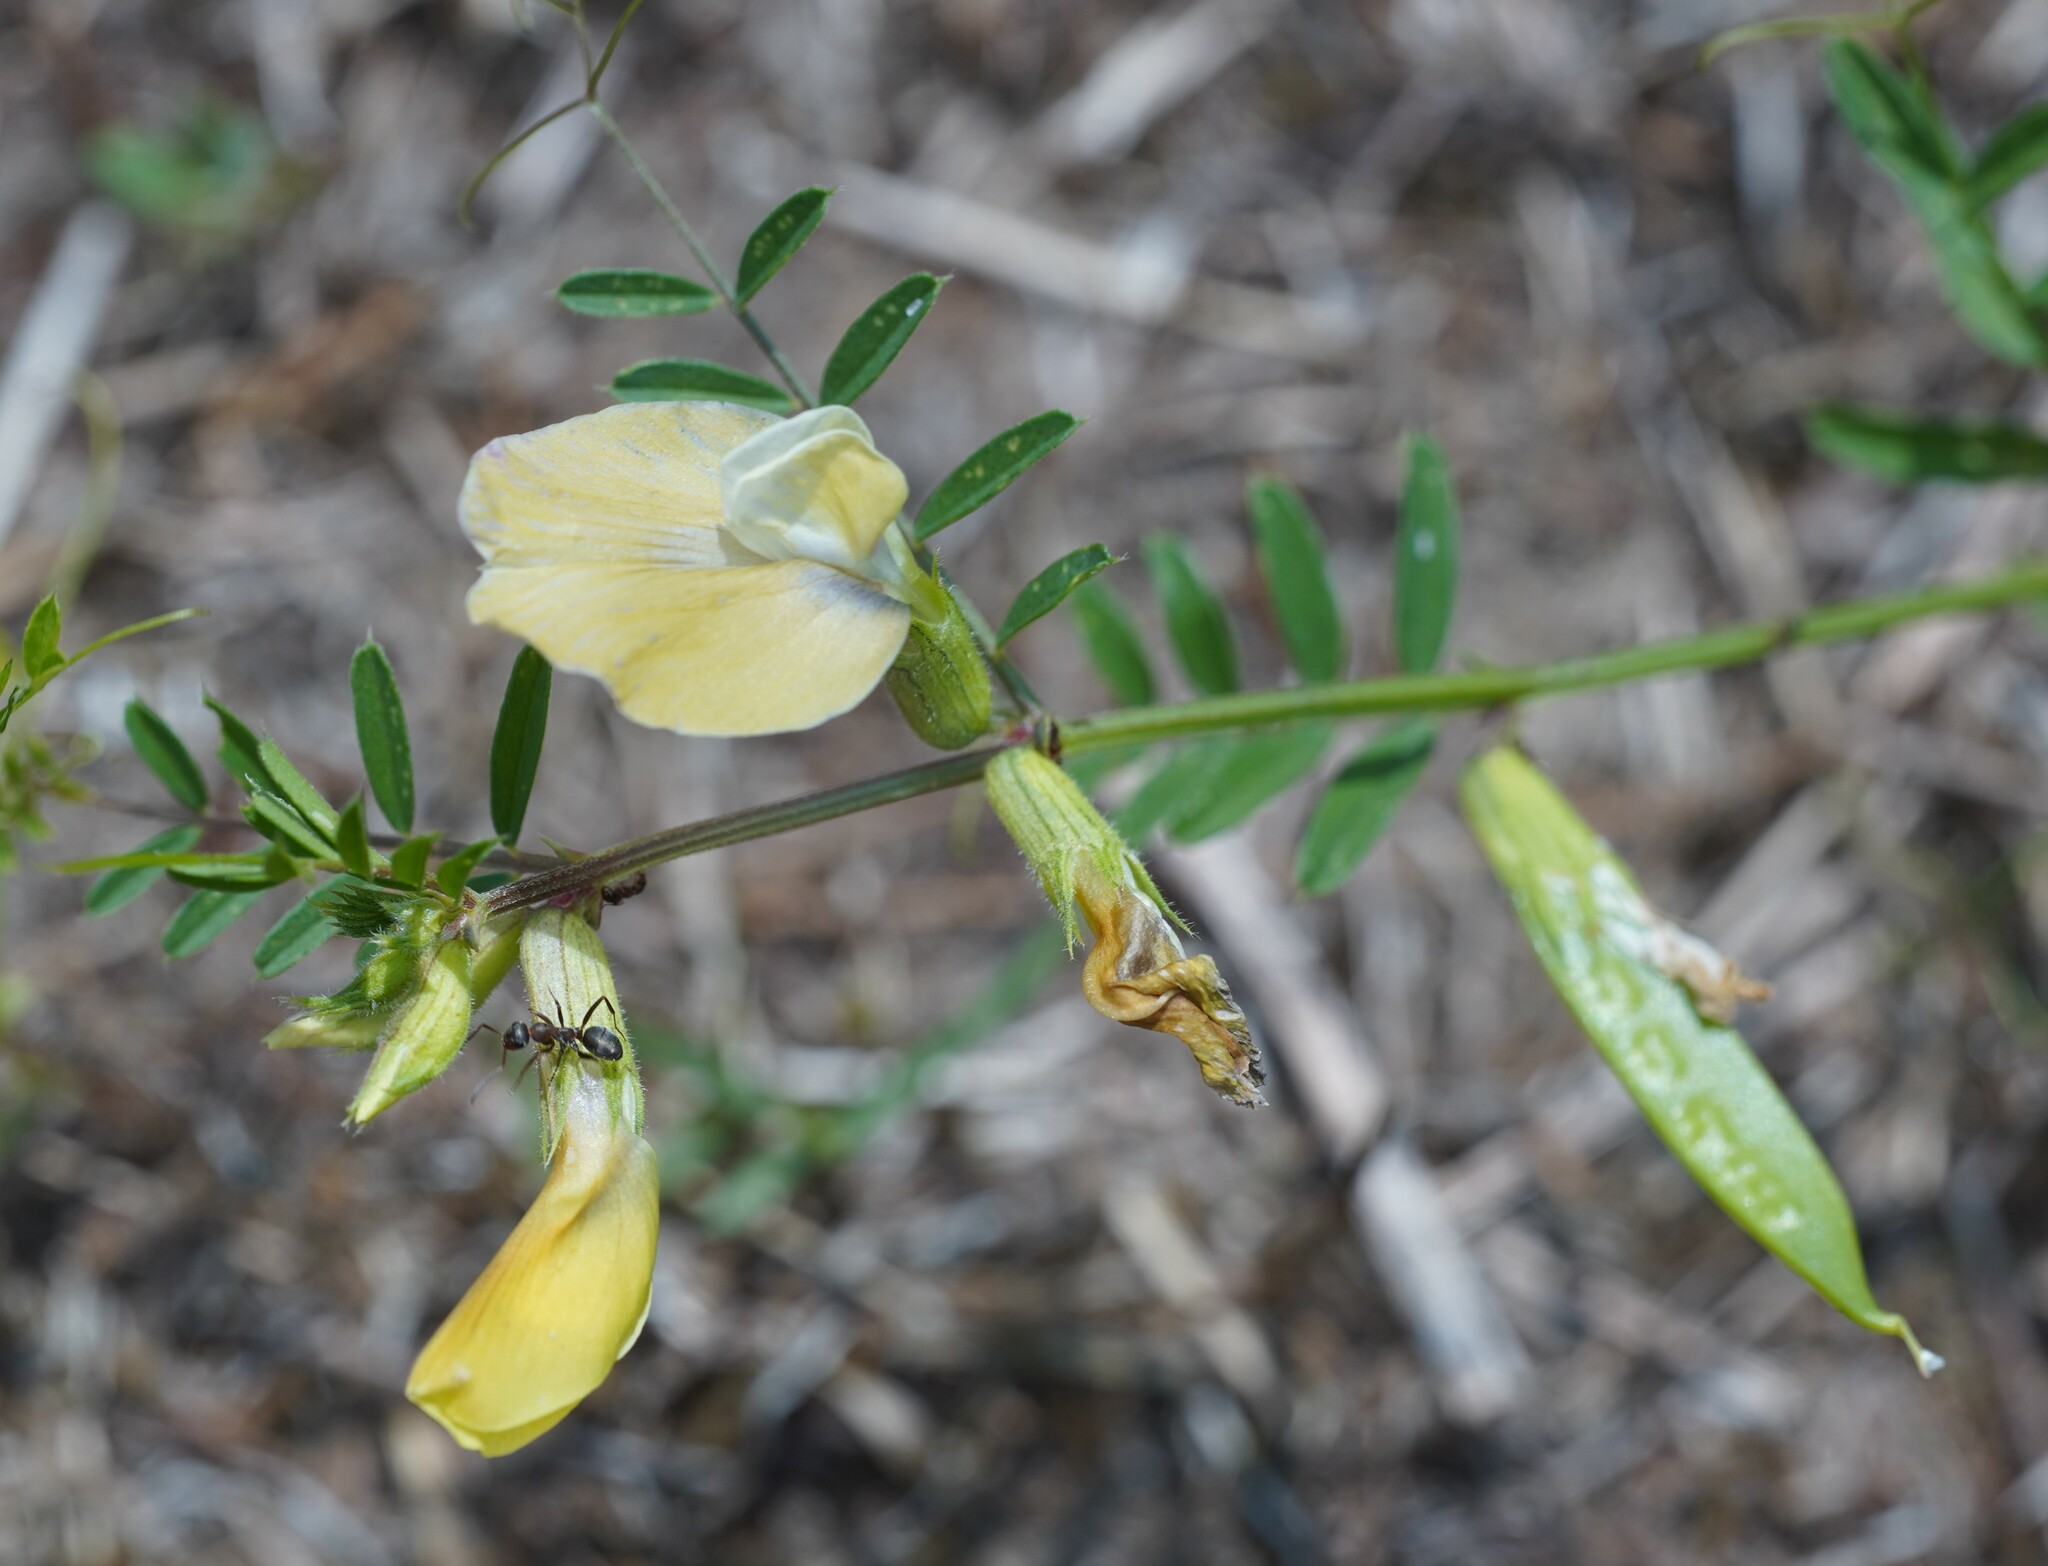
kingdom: Plantae
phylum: Tracheophyta
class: Magnoliopsida
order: Fabales
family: Fabaceae
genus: Vicia
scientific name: Vicia grandiflora
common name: Large yellow vetch
